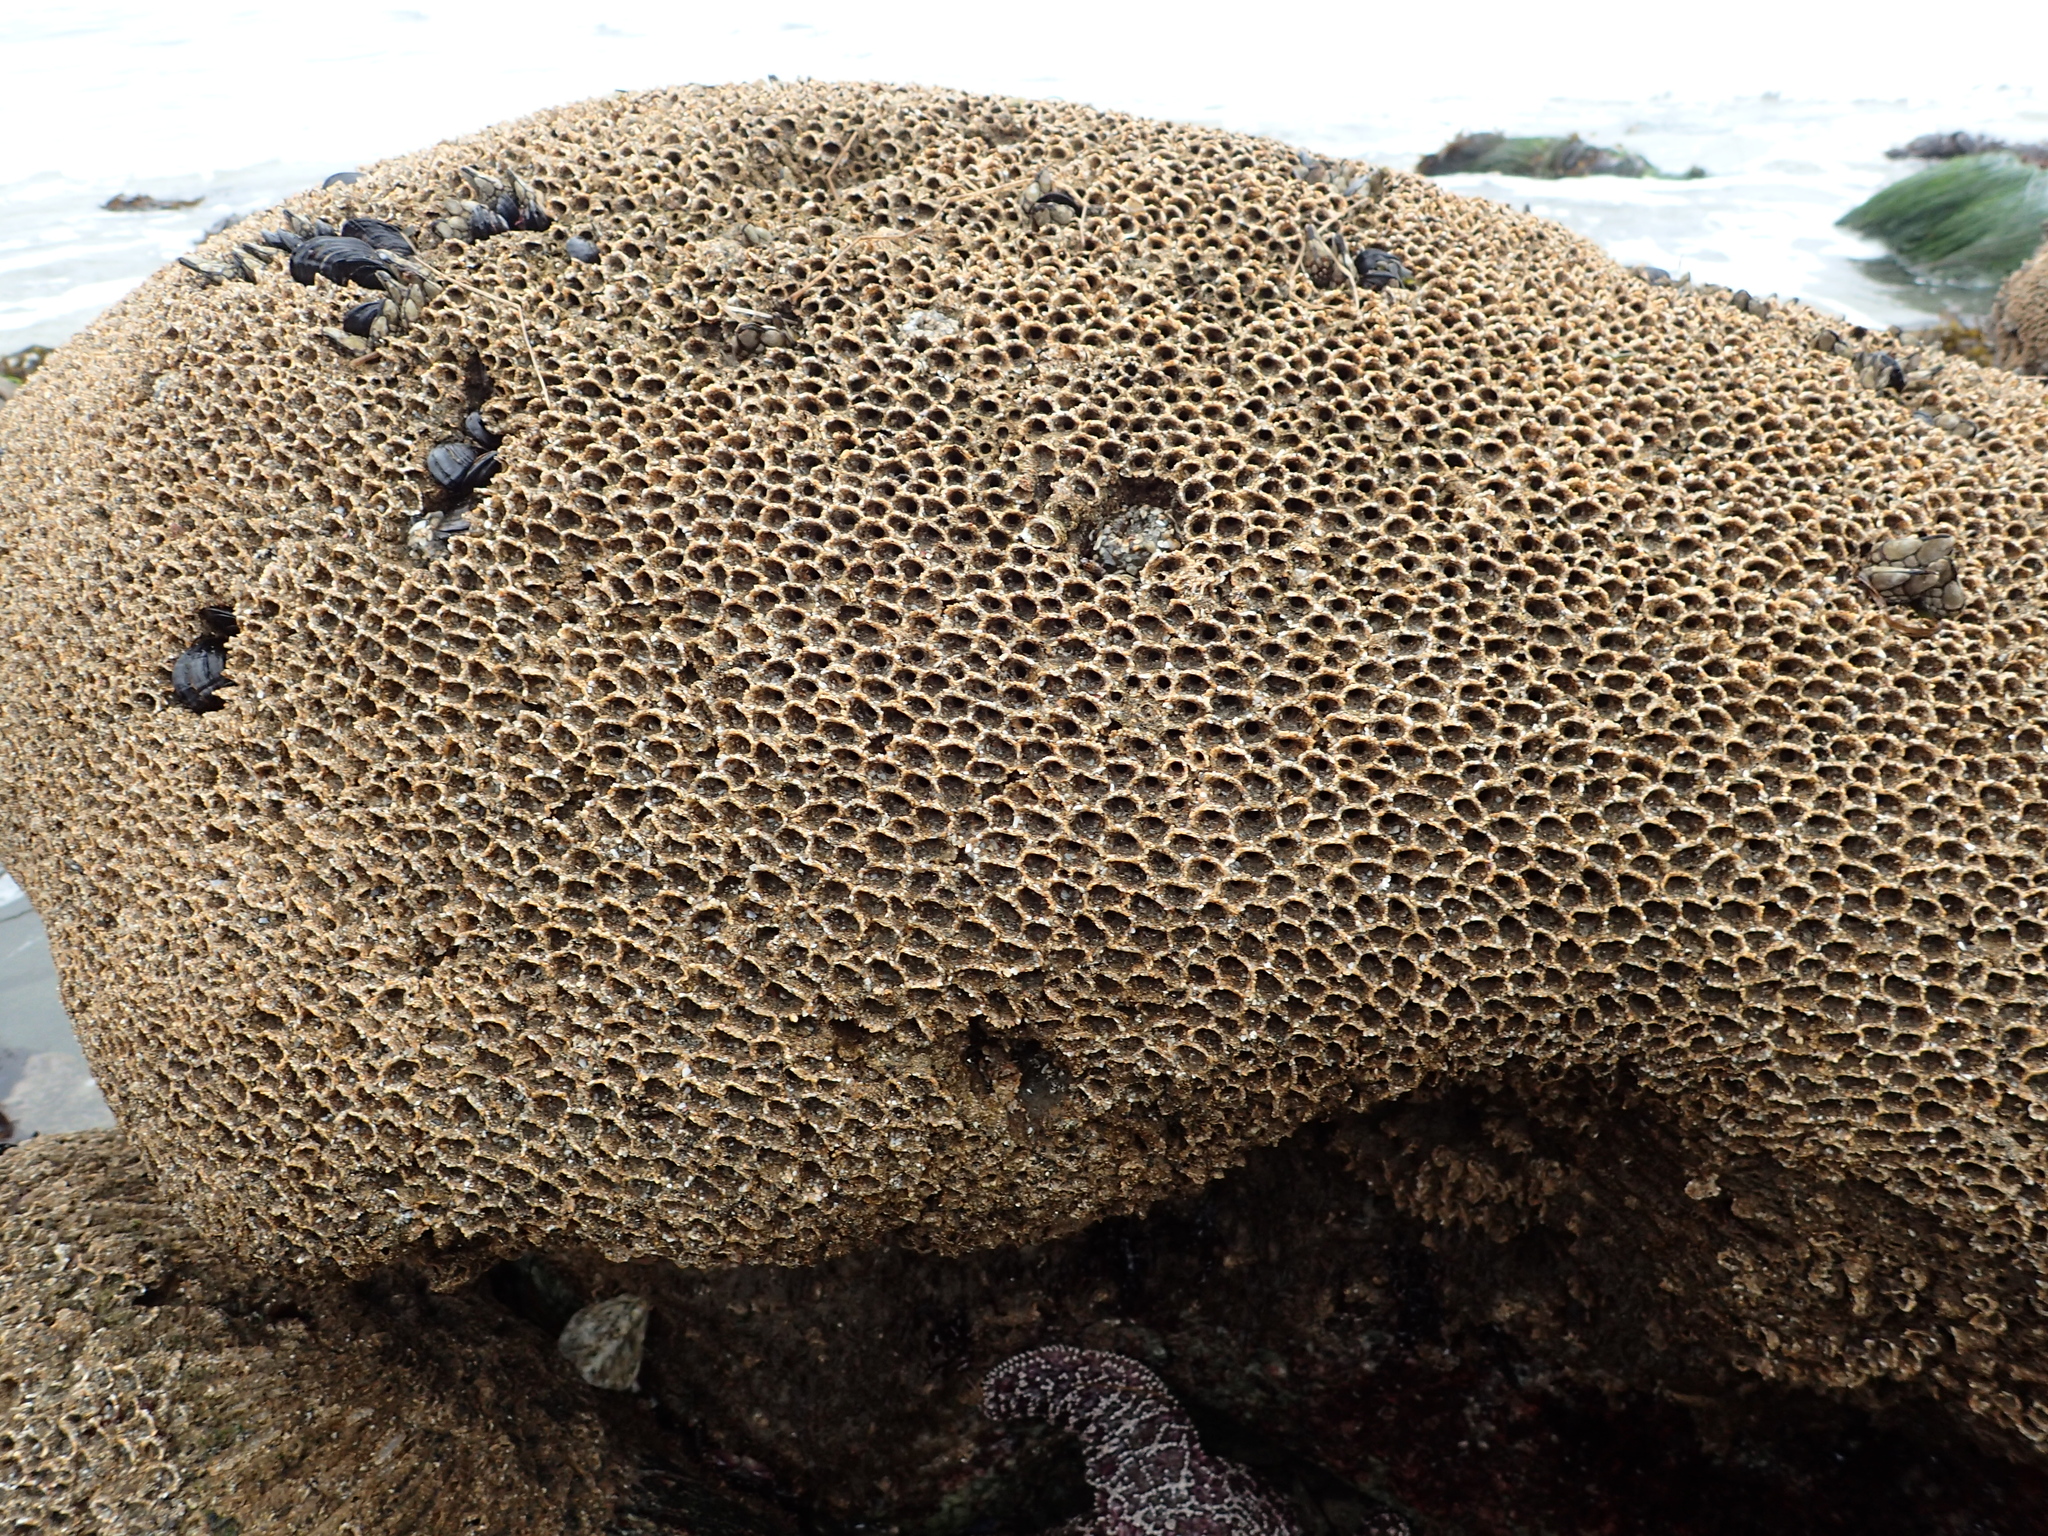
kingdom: Animalia
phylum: Annelida
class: Polychaeta
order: Sabellida
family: Sabellariidae
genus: Phragmatopoma
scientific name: Phragmatopoma californica
